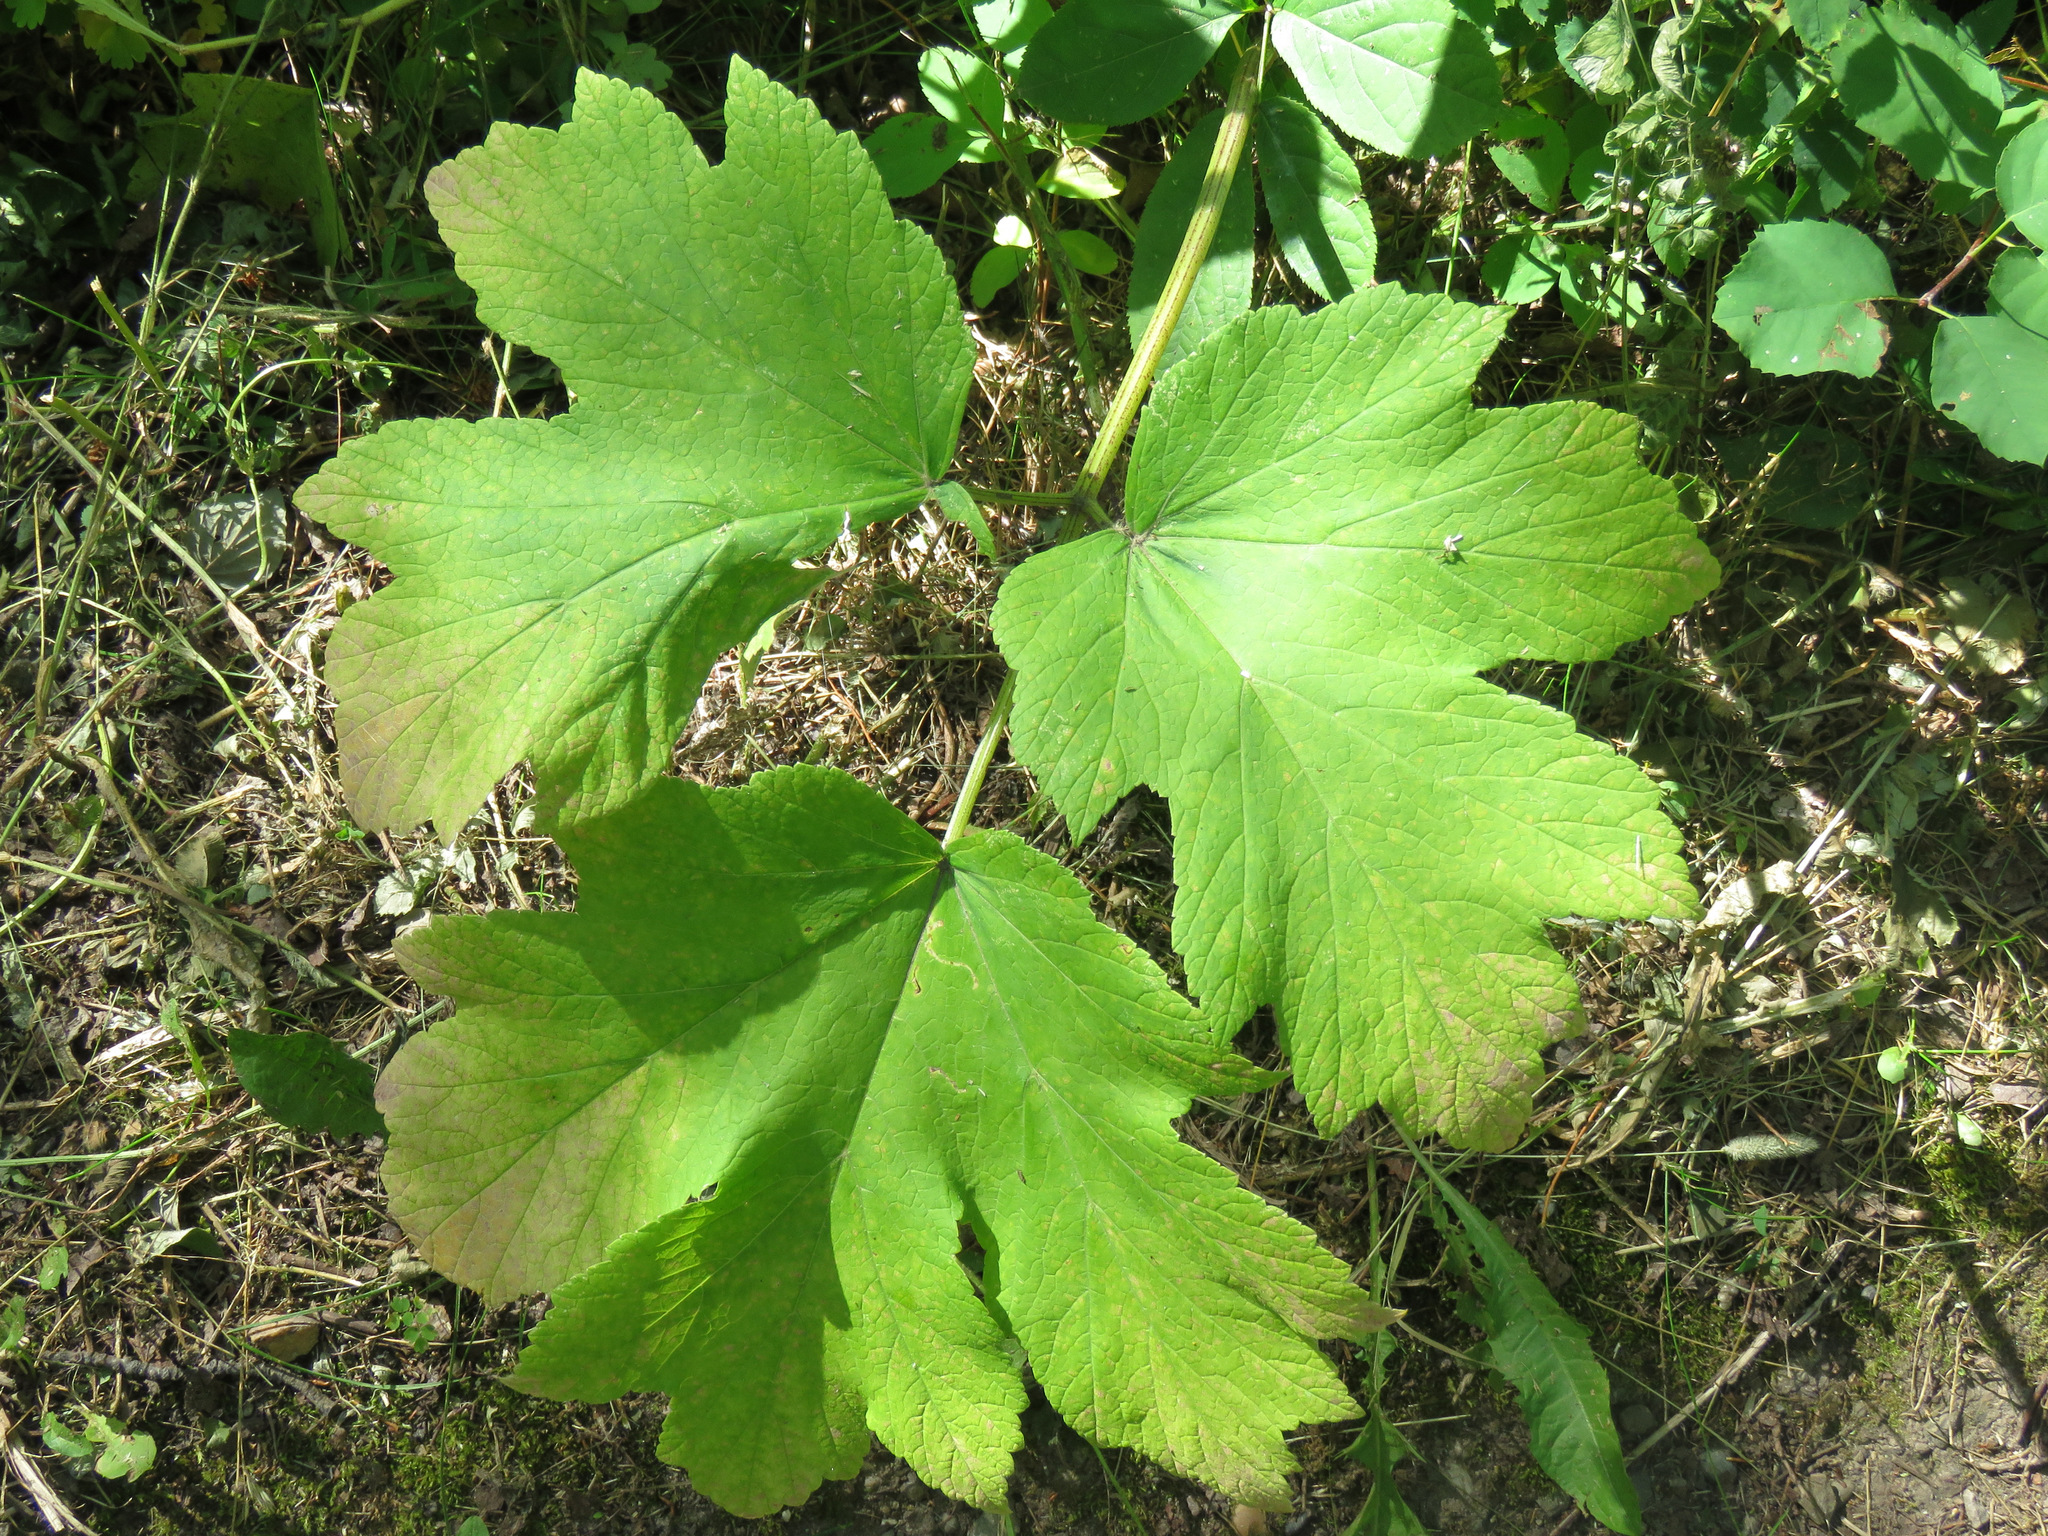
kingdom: Plantae
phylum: Tracheophyta
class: Magnoliopsida
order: Apiales
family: Apiaceae
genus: Heracleum
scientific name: Heracleum maximum
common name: American cow parsnip
